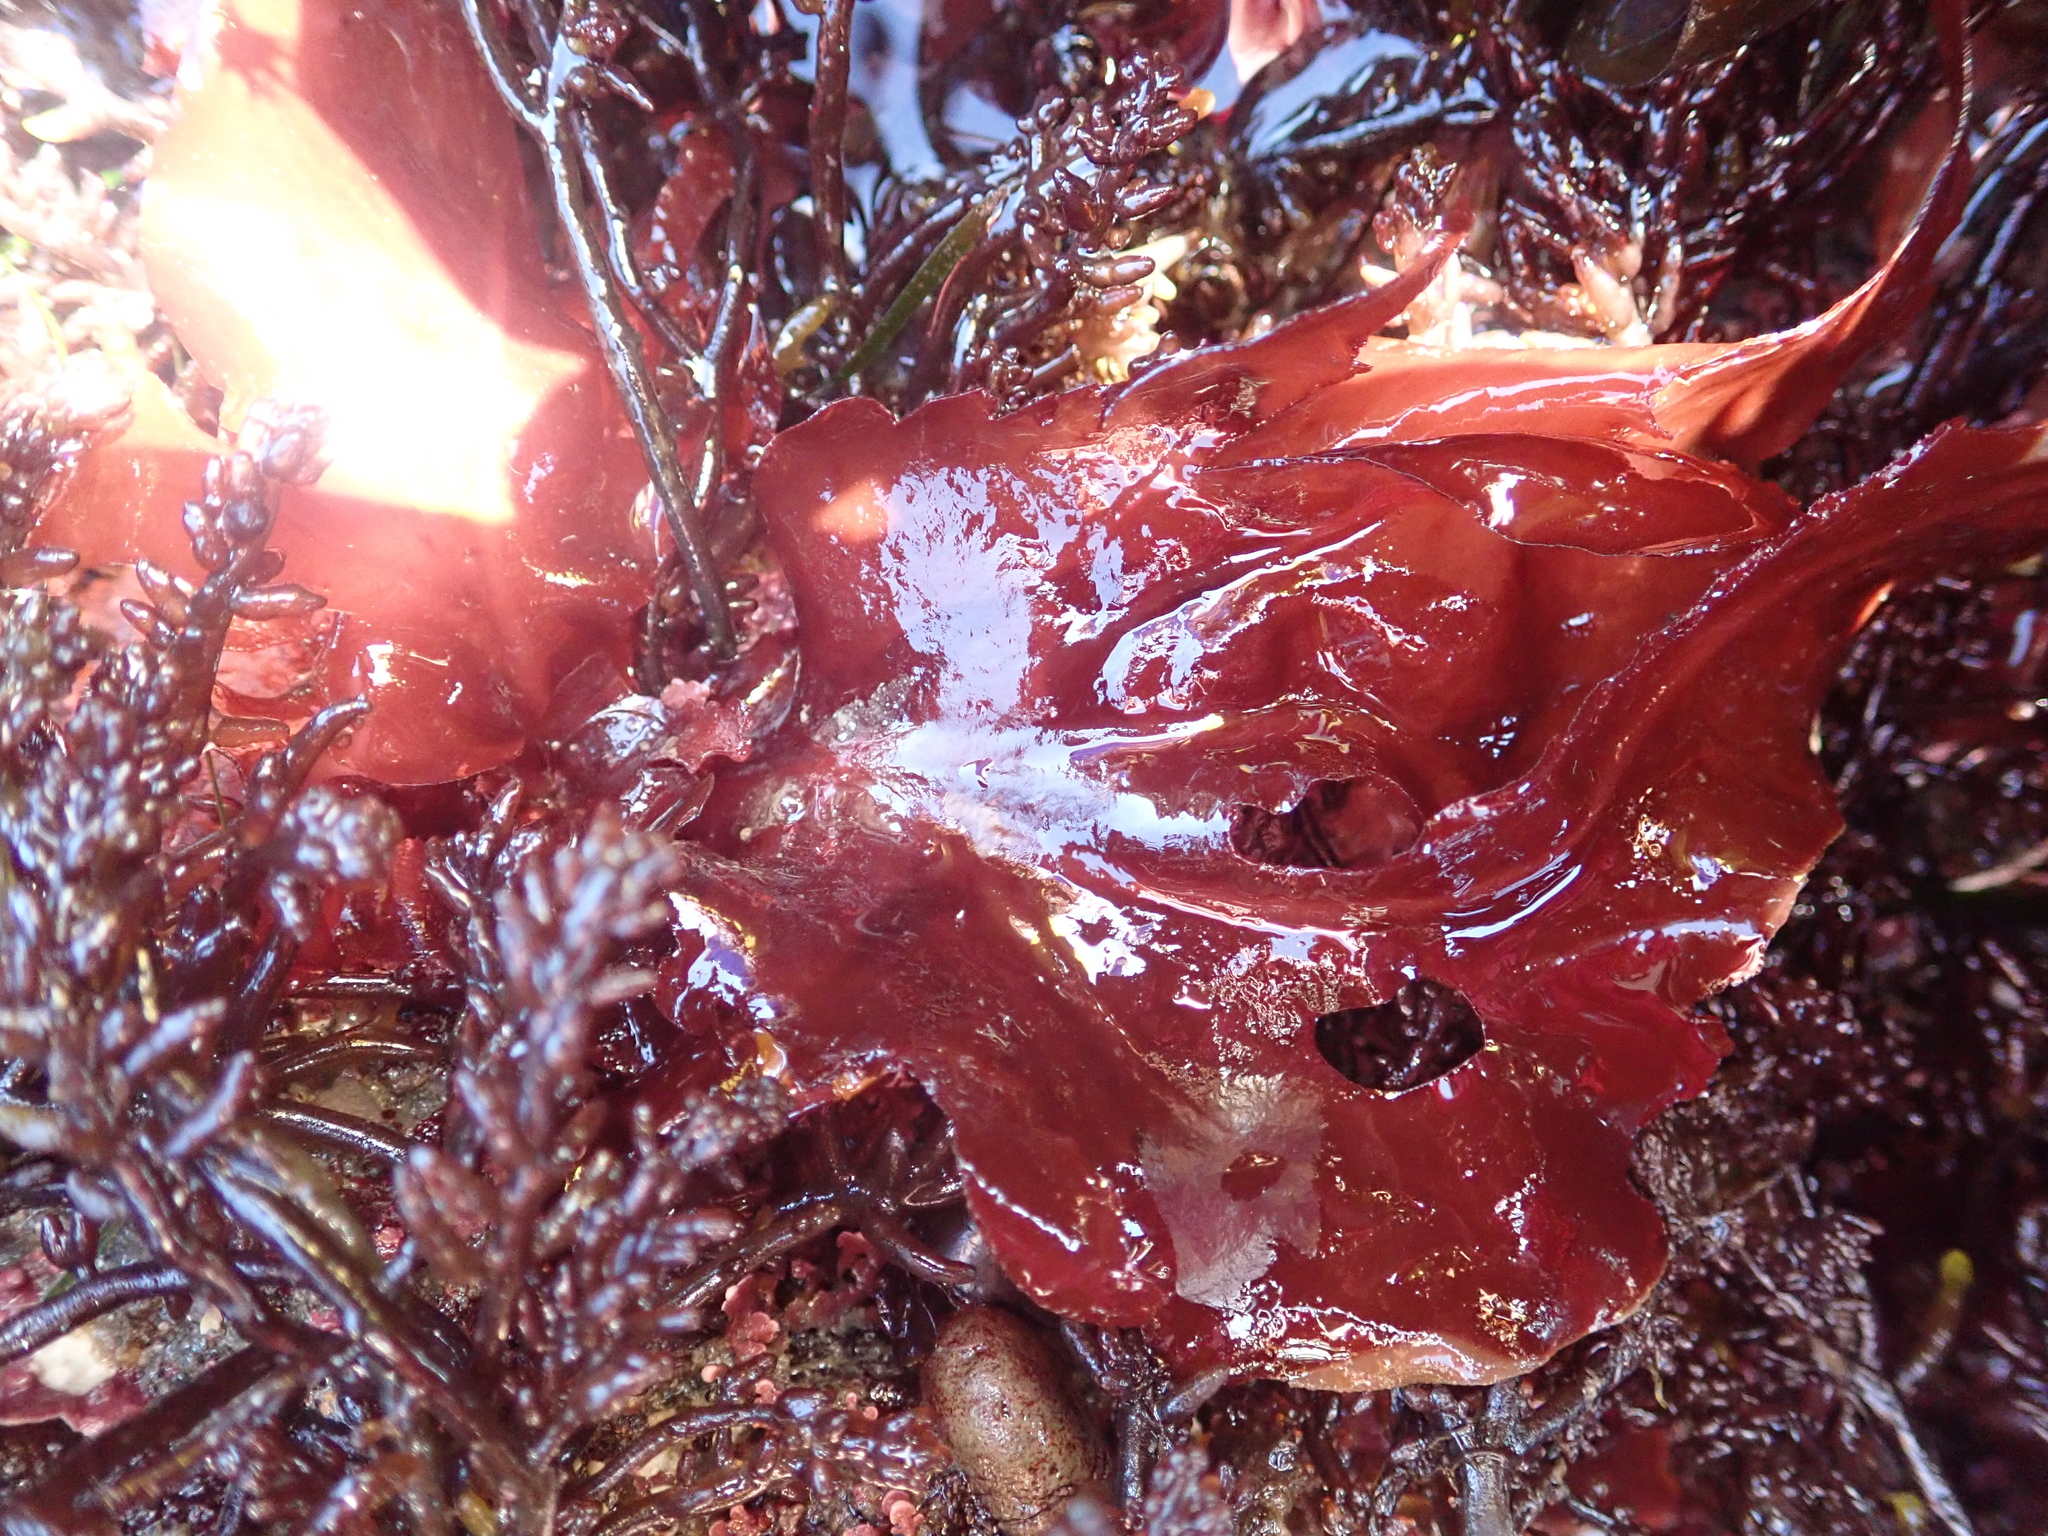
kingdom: Plantae
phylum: Rhodophyta
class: Florideophyceae
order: Gigartinales
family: Kallymeniaceae
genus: Erythrophyllum
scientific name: Erythrophyllum delesserioides
